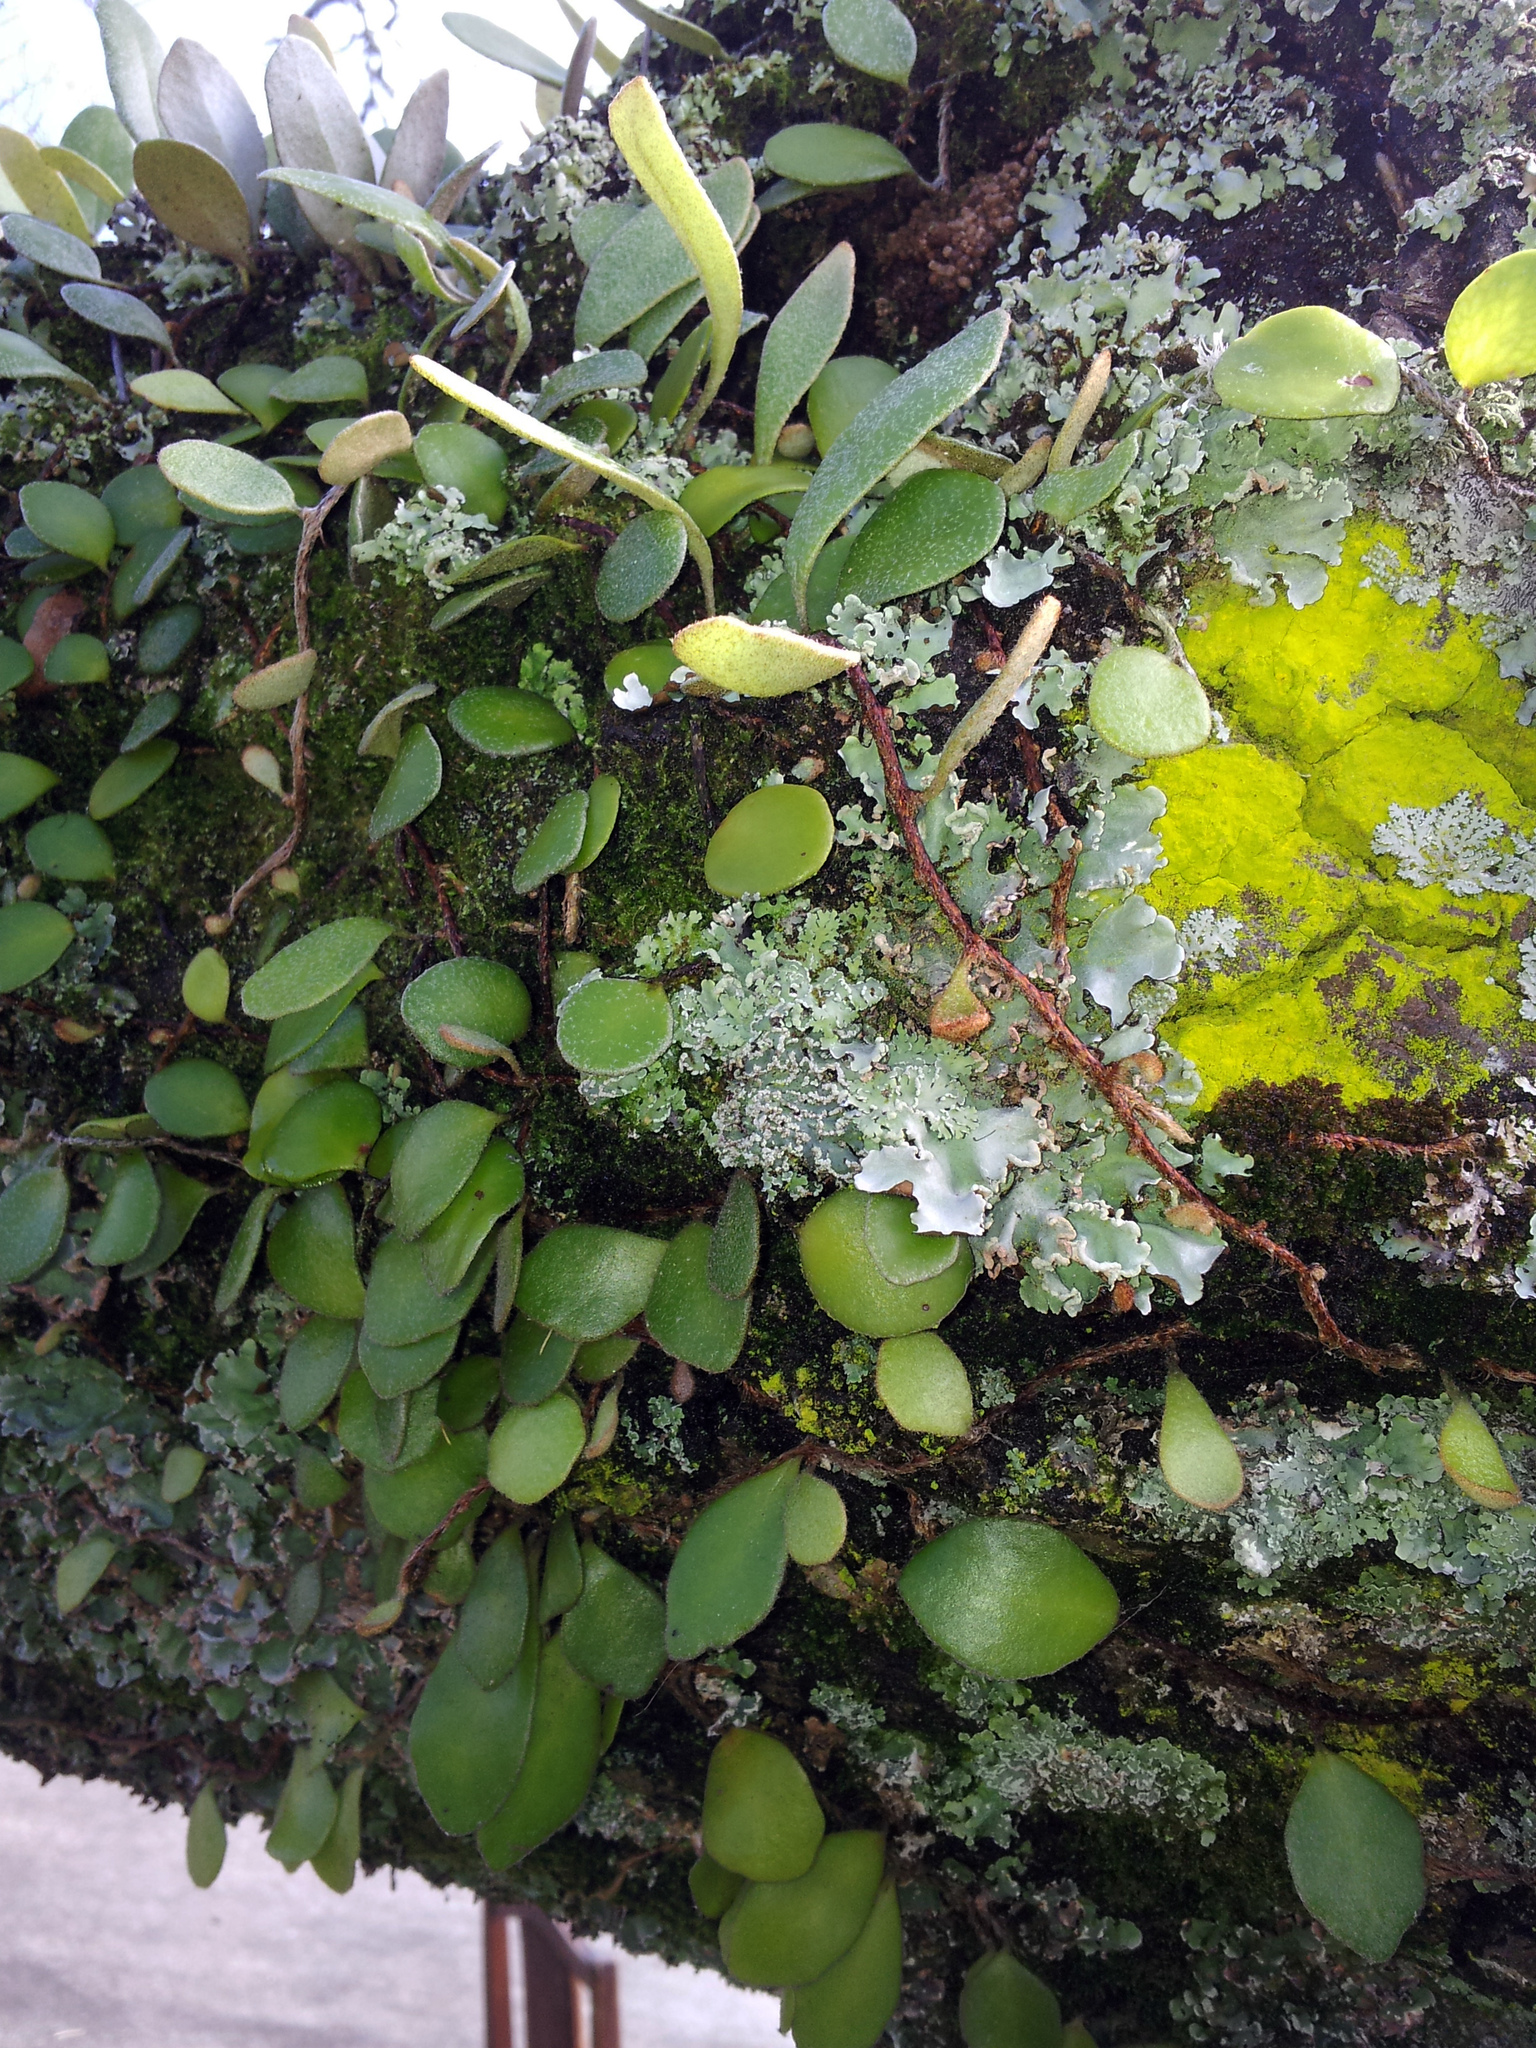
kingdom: Plantae
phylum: Tracheophyta
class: Polypodiopsida
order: Polypodiales
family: Polypodiaceae
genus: Pyrrosia
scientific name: Pyrrosia eleagnifolia
